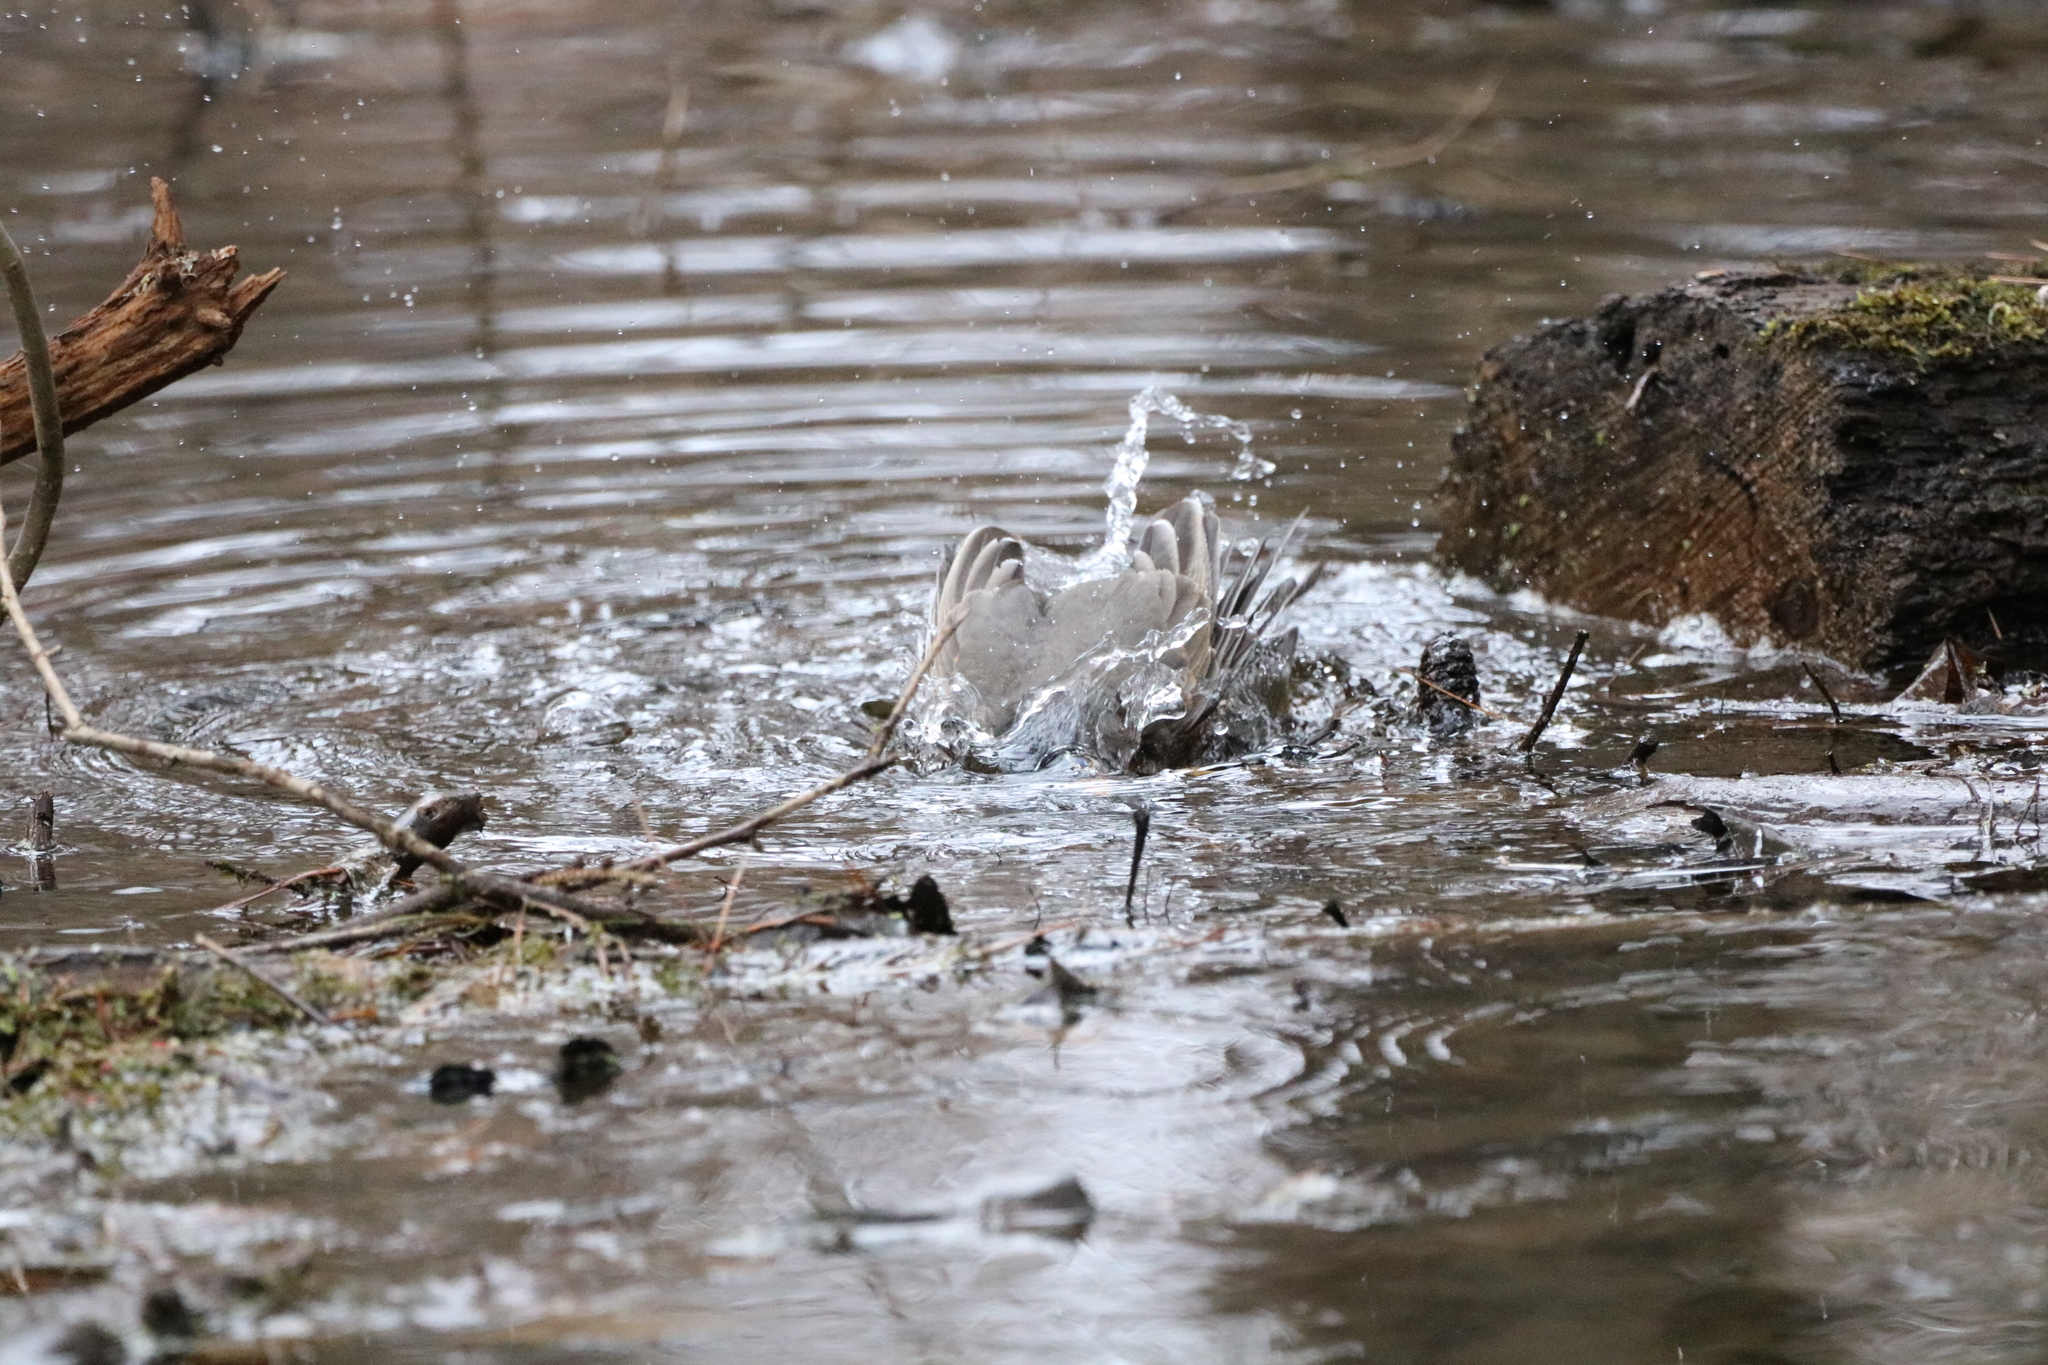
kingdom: Animalia
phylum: Chordata
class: Aves
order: Passeriformes
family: Turdidae
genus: Turdus
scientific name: Turdus migratorius
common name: American robin
